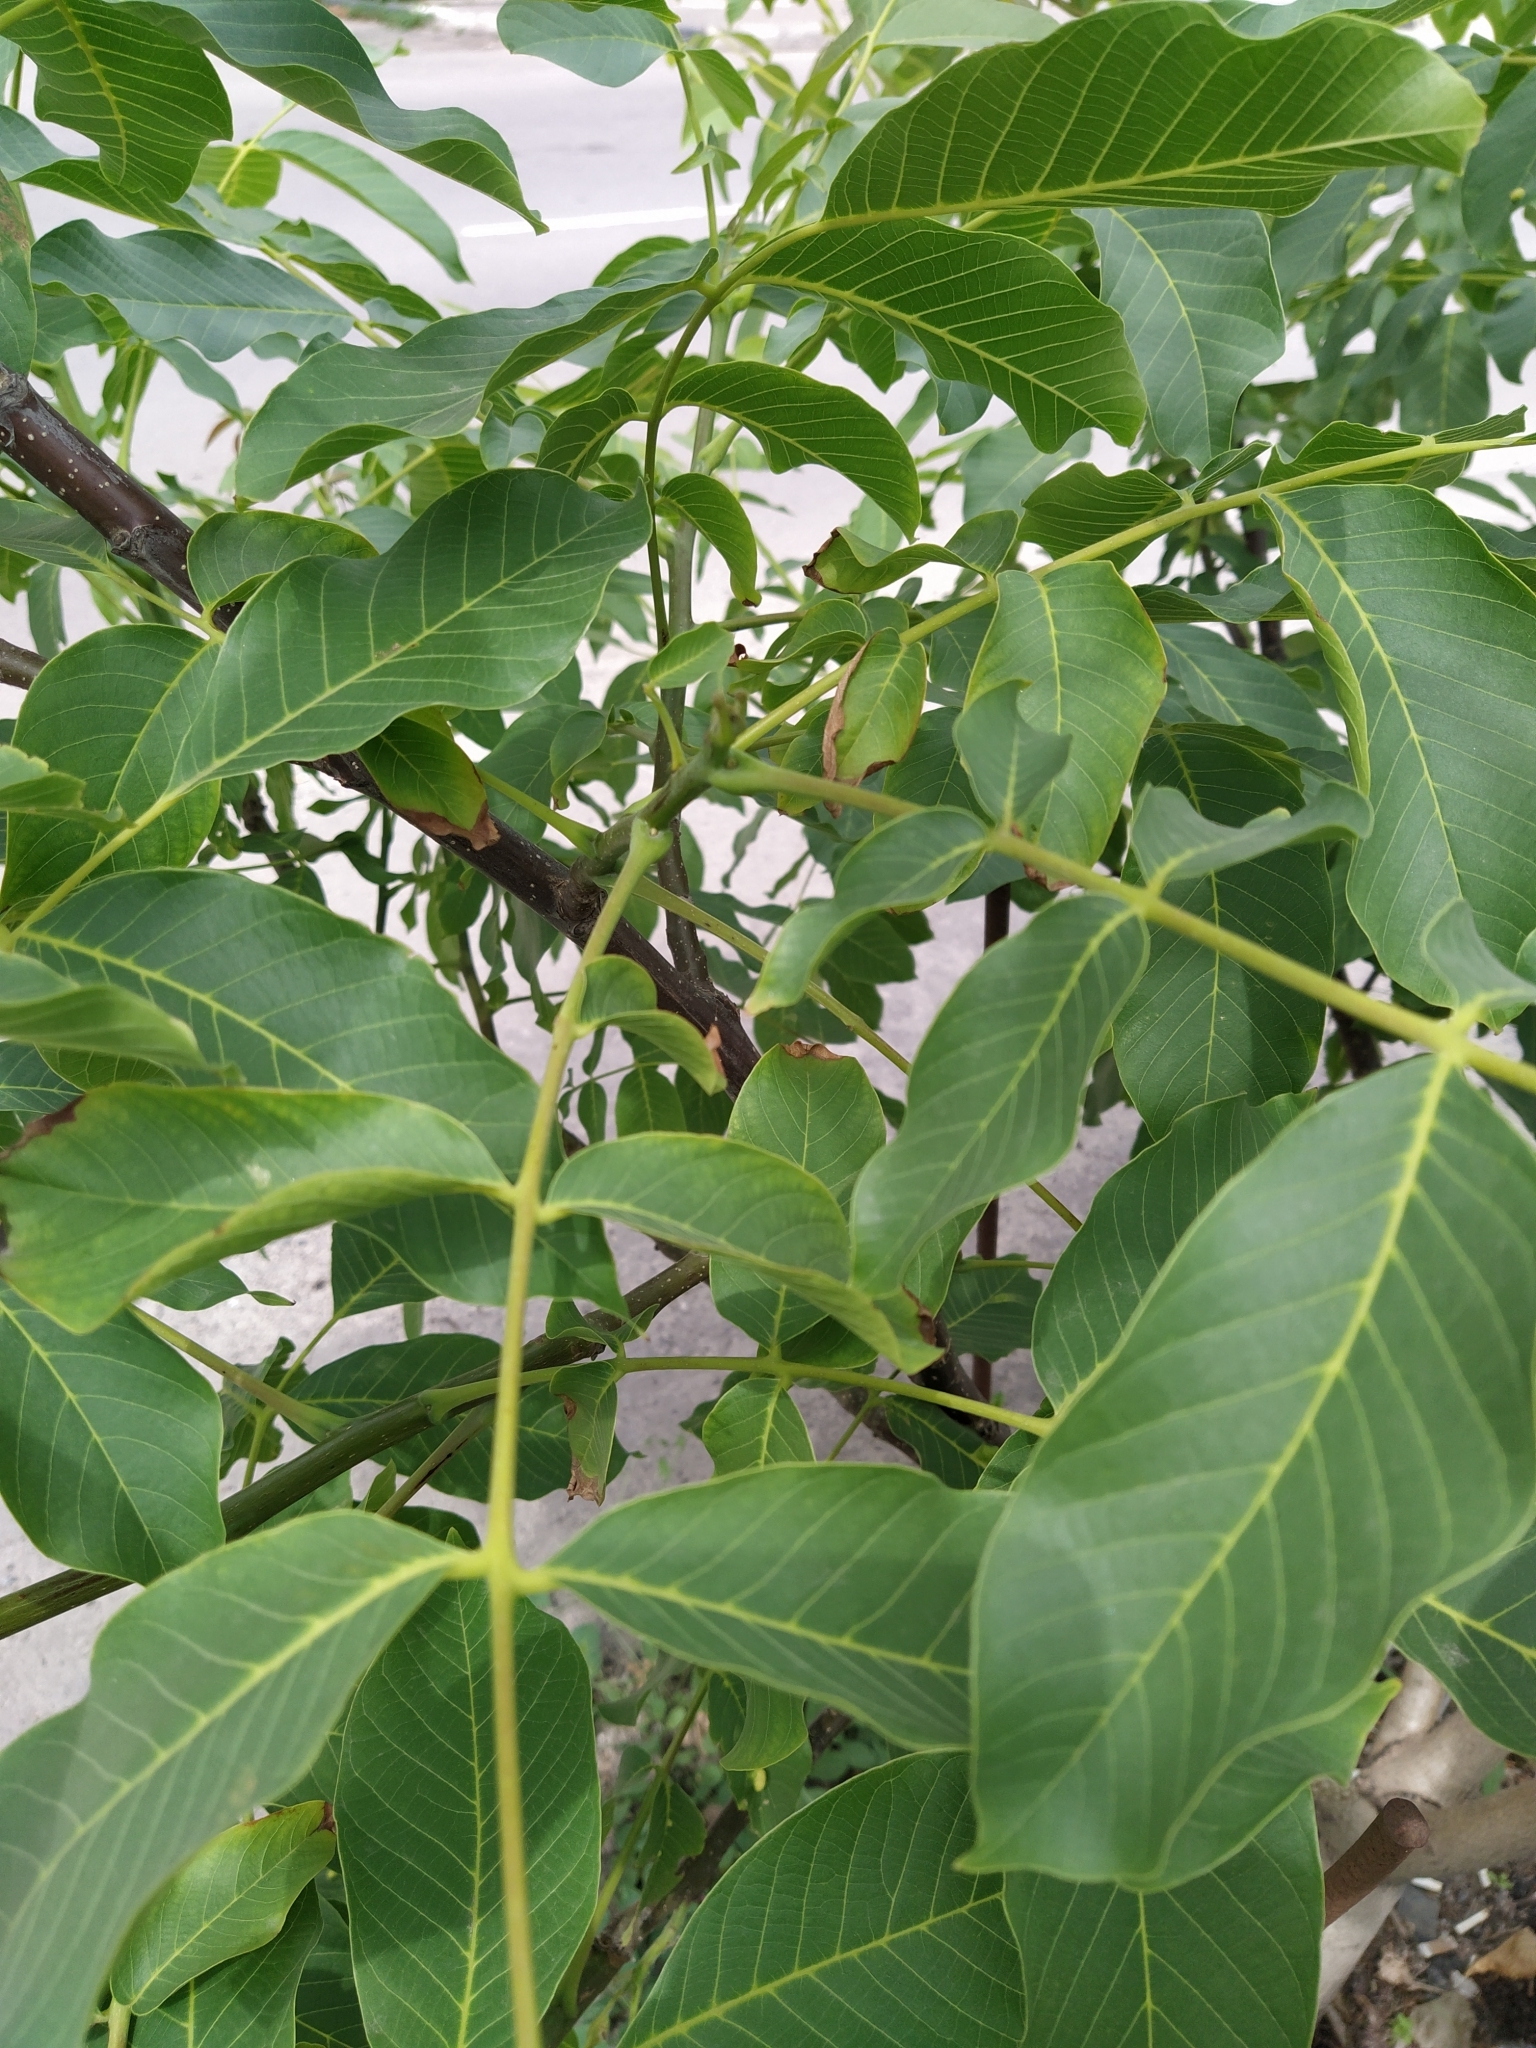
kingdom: Plantae
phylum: Tracheophyta
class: Magnoliopsida
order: Fagales
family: Juglandaceae
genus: Juglans
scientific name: Juglans regia
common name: Walnut
